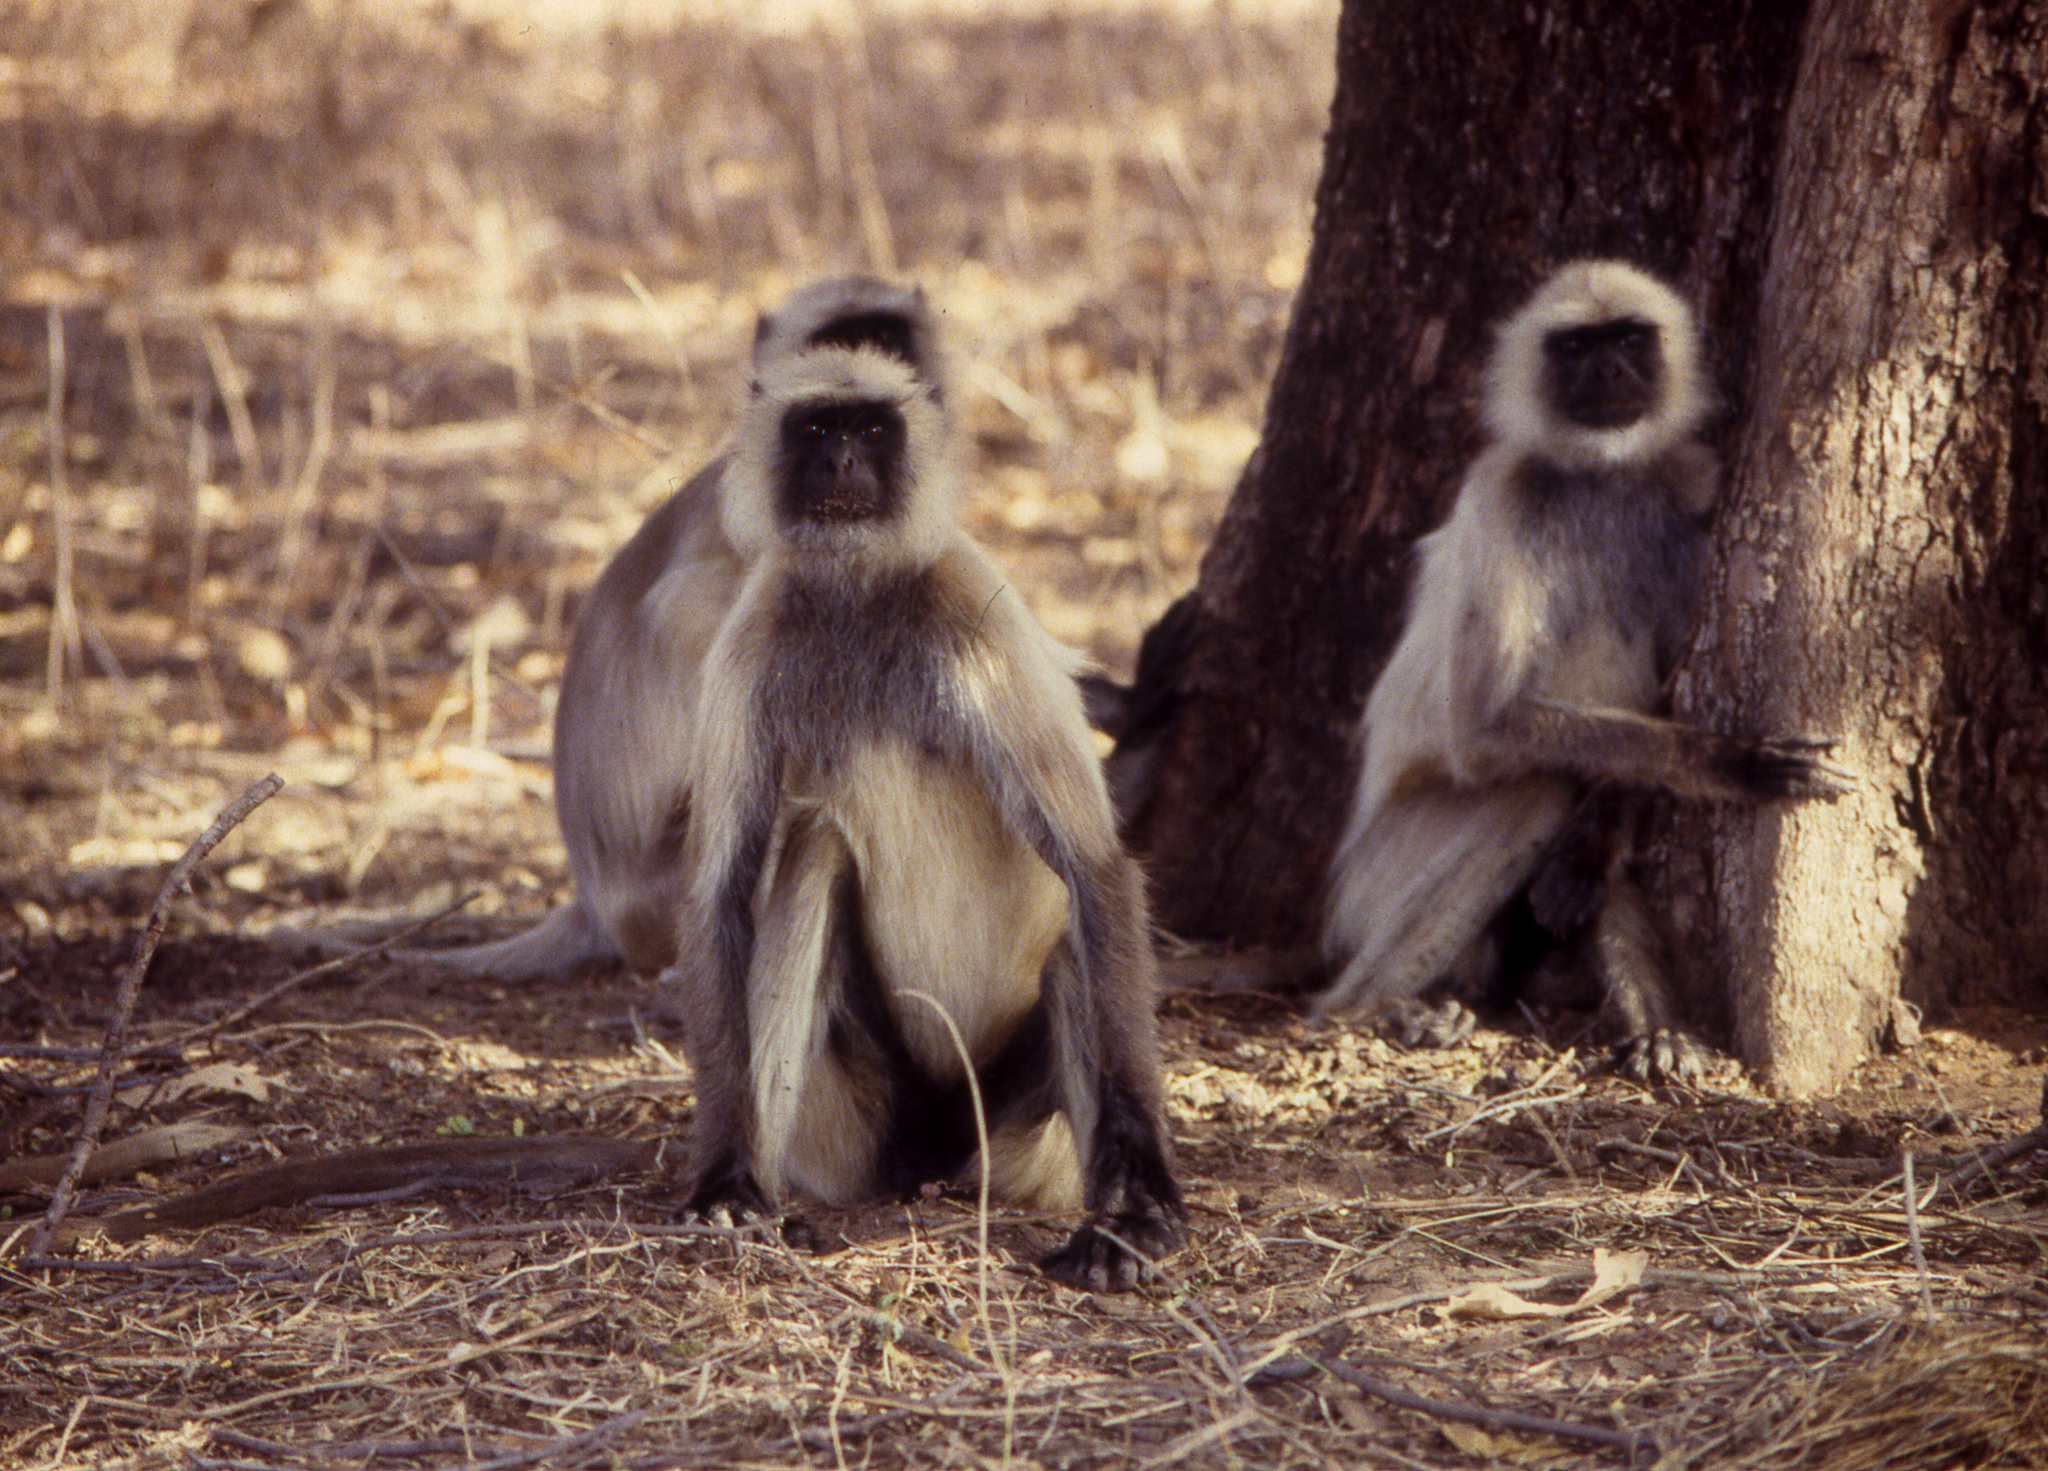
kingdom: Animalia
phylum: Chordata
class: Mammalia
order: Primates
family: Cercopithecidae
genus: Semnopithecus
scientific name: Semnopithecus entellus
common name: Northern plains gray langur
